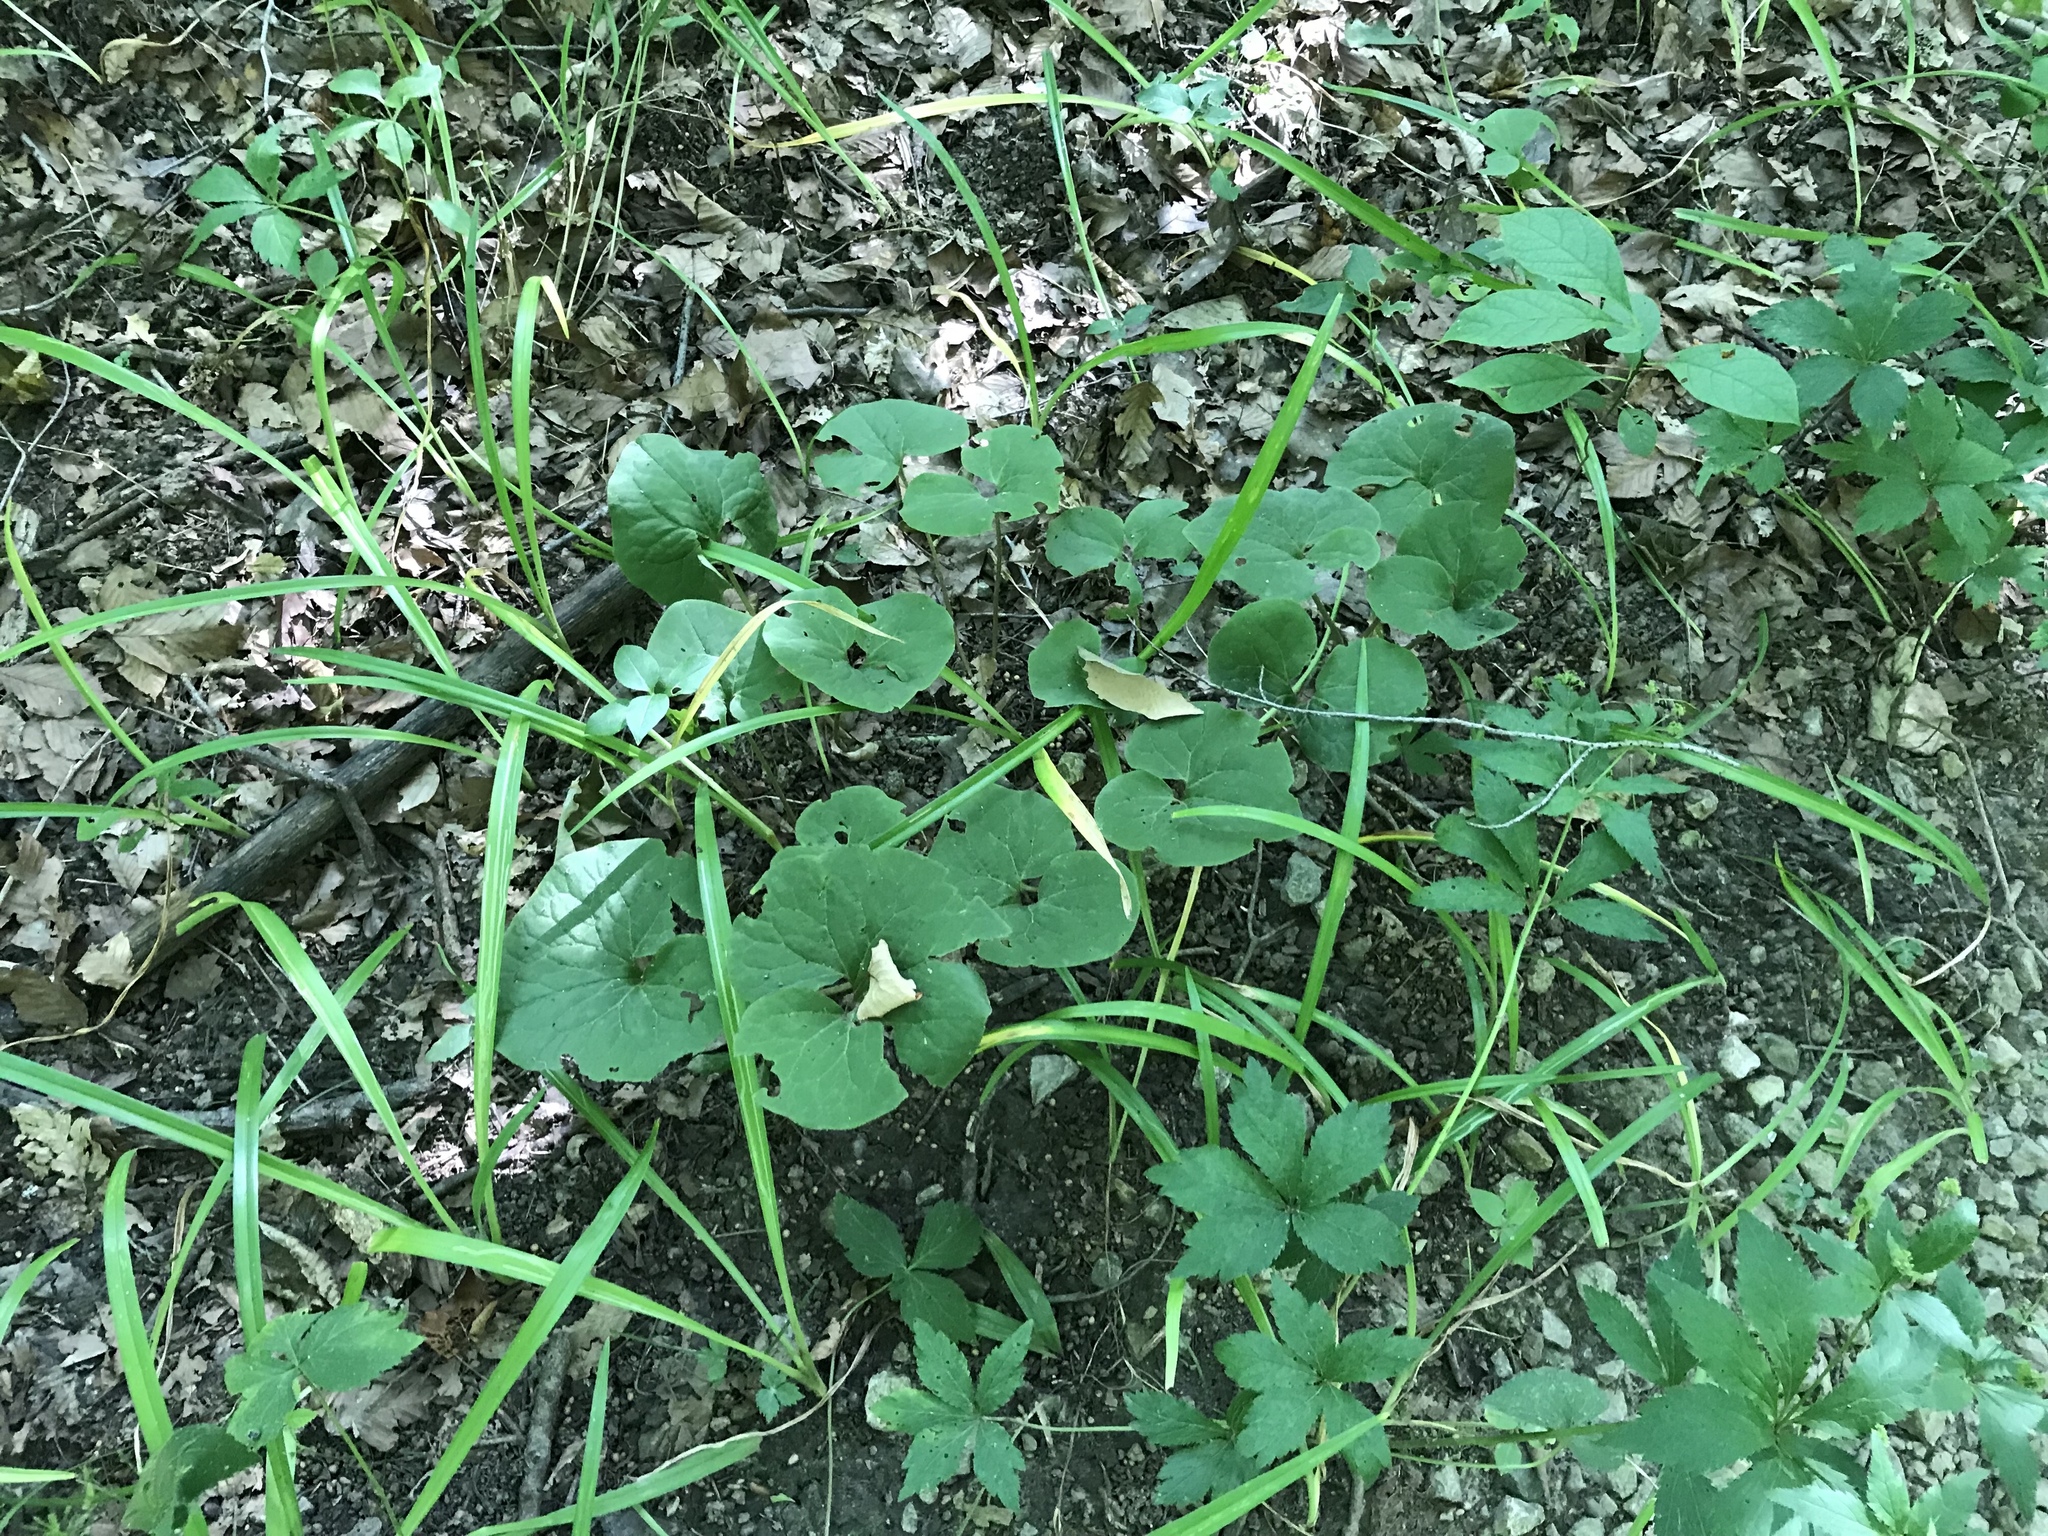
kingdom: Plantae
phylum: Tracheophyta
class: Magnoliopsida
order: Piperales
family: Aristolochiaceae
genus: Asarum
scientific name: Asarum canadense
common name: Wild ginger
